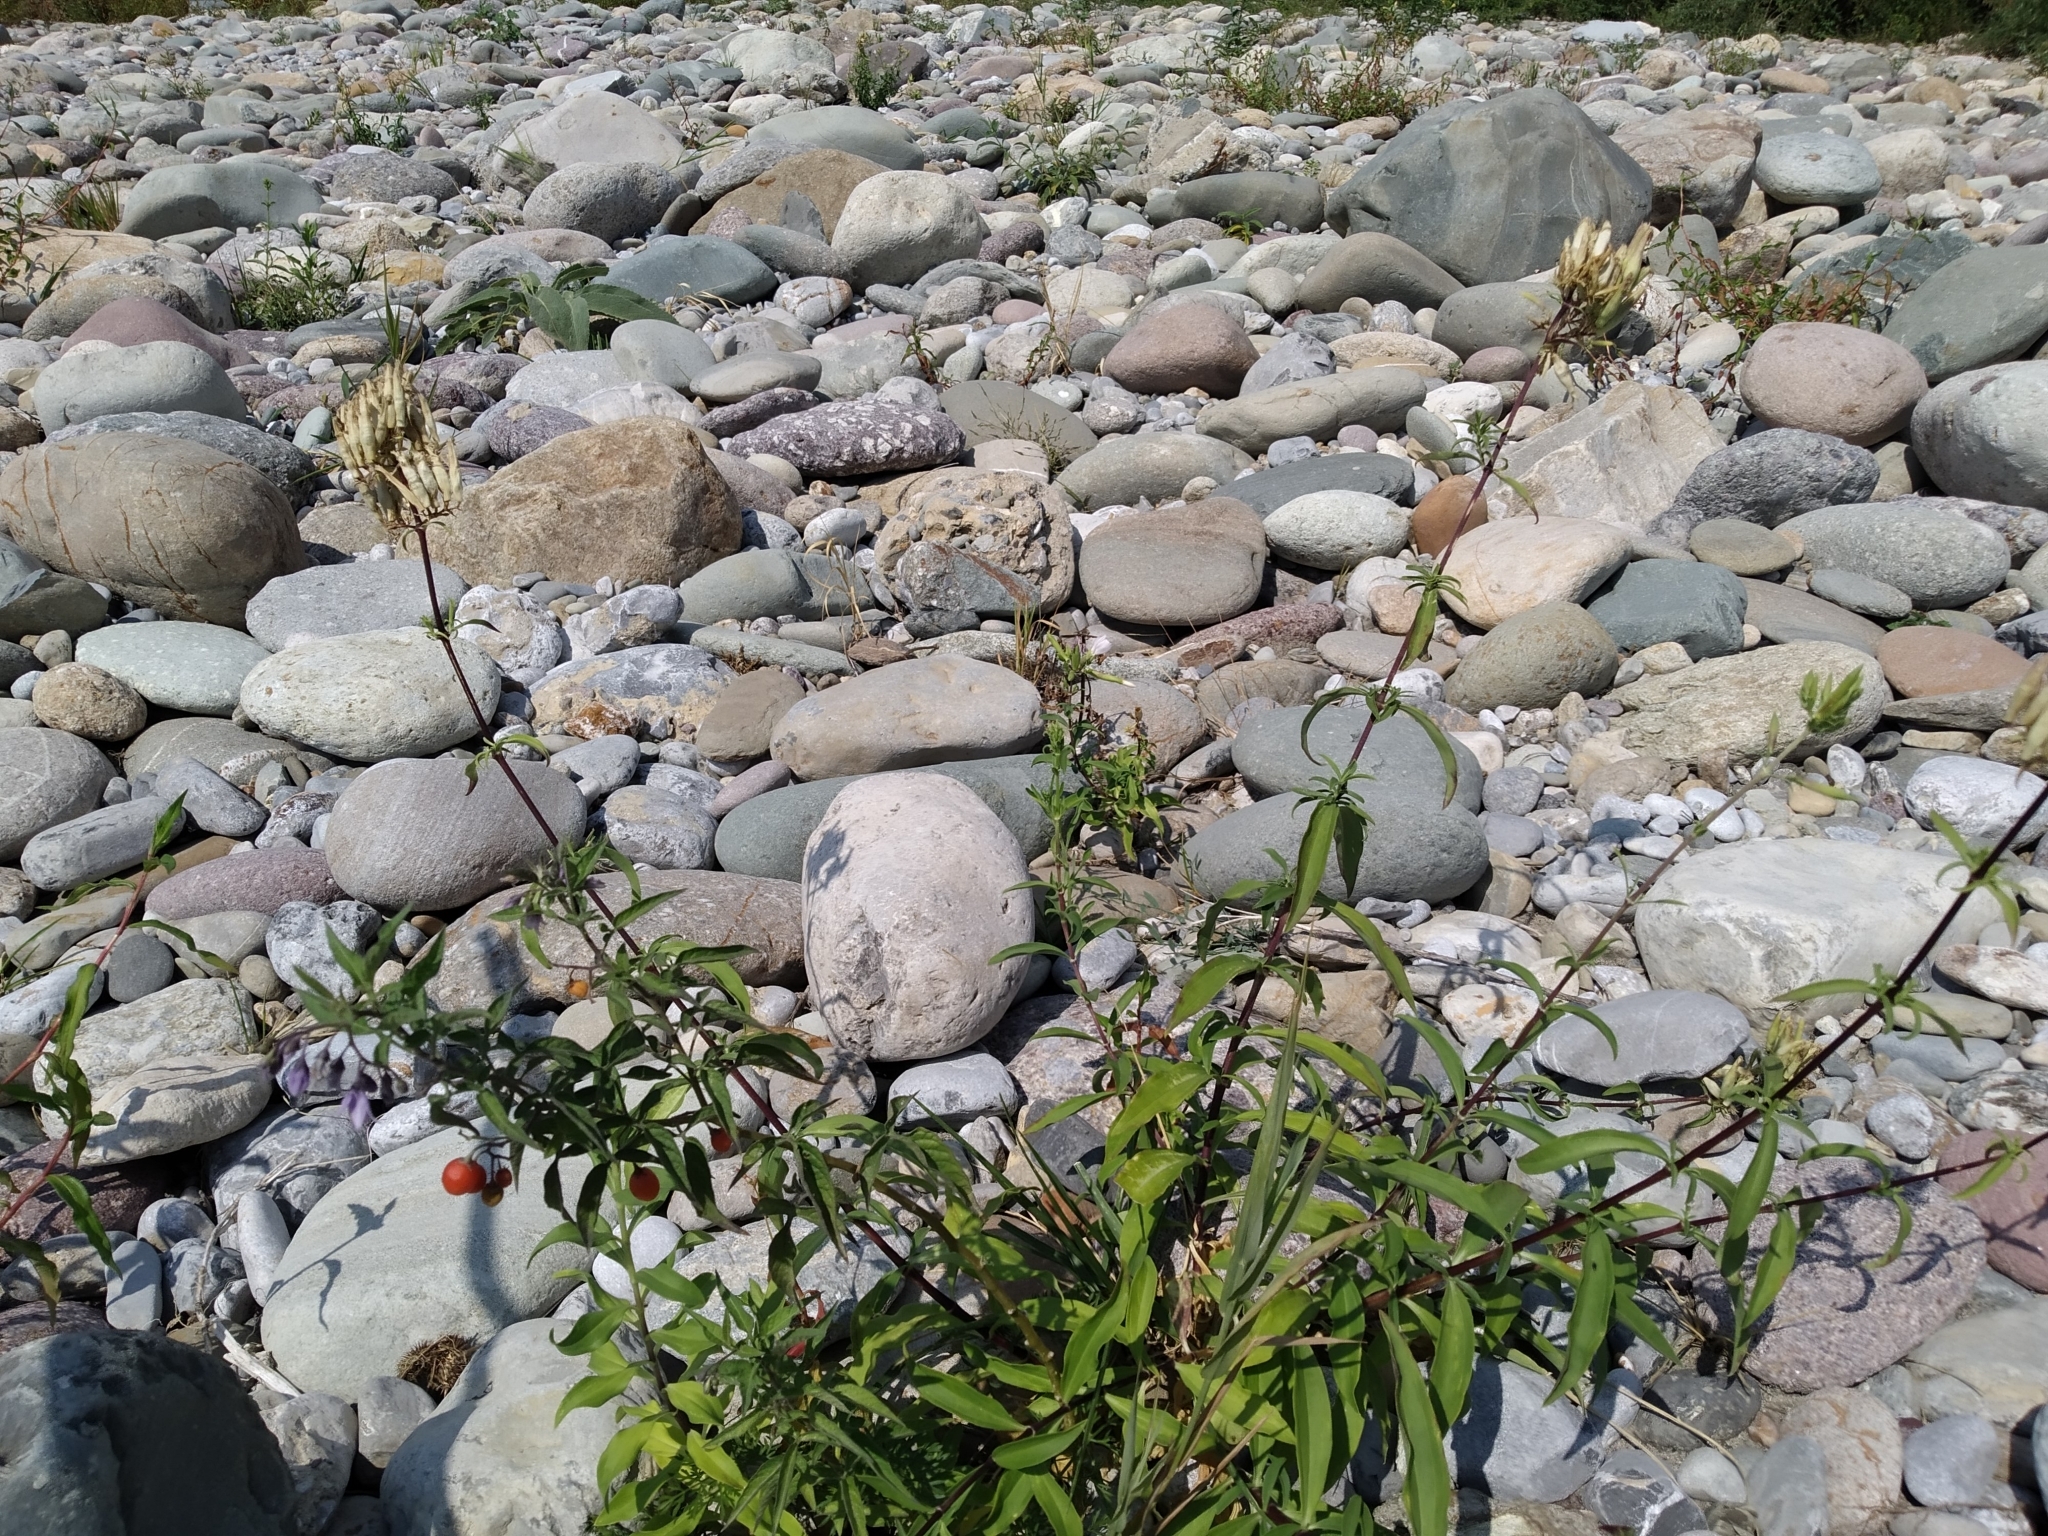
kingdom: Plantae
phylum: Tracheophyta
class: Magnoliopsida
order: Solanales
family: Solanaceae
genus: Solanum
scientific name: Solanum dulcamara
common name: Climbing nightshade
